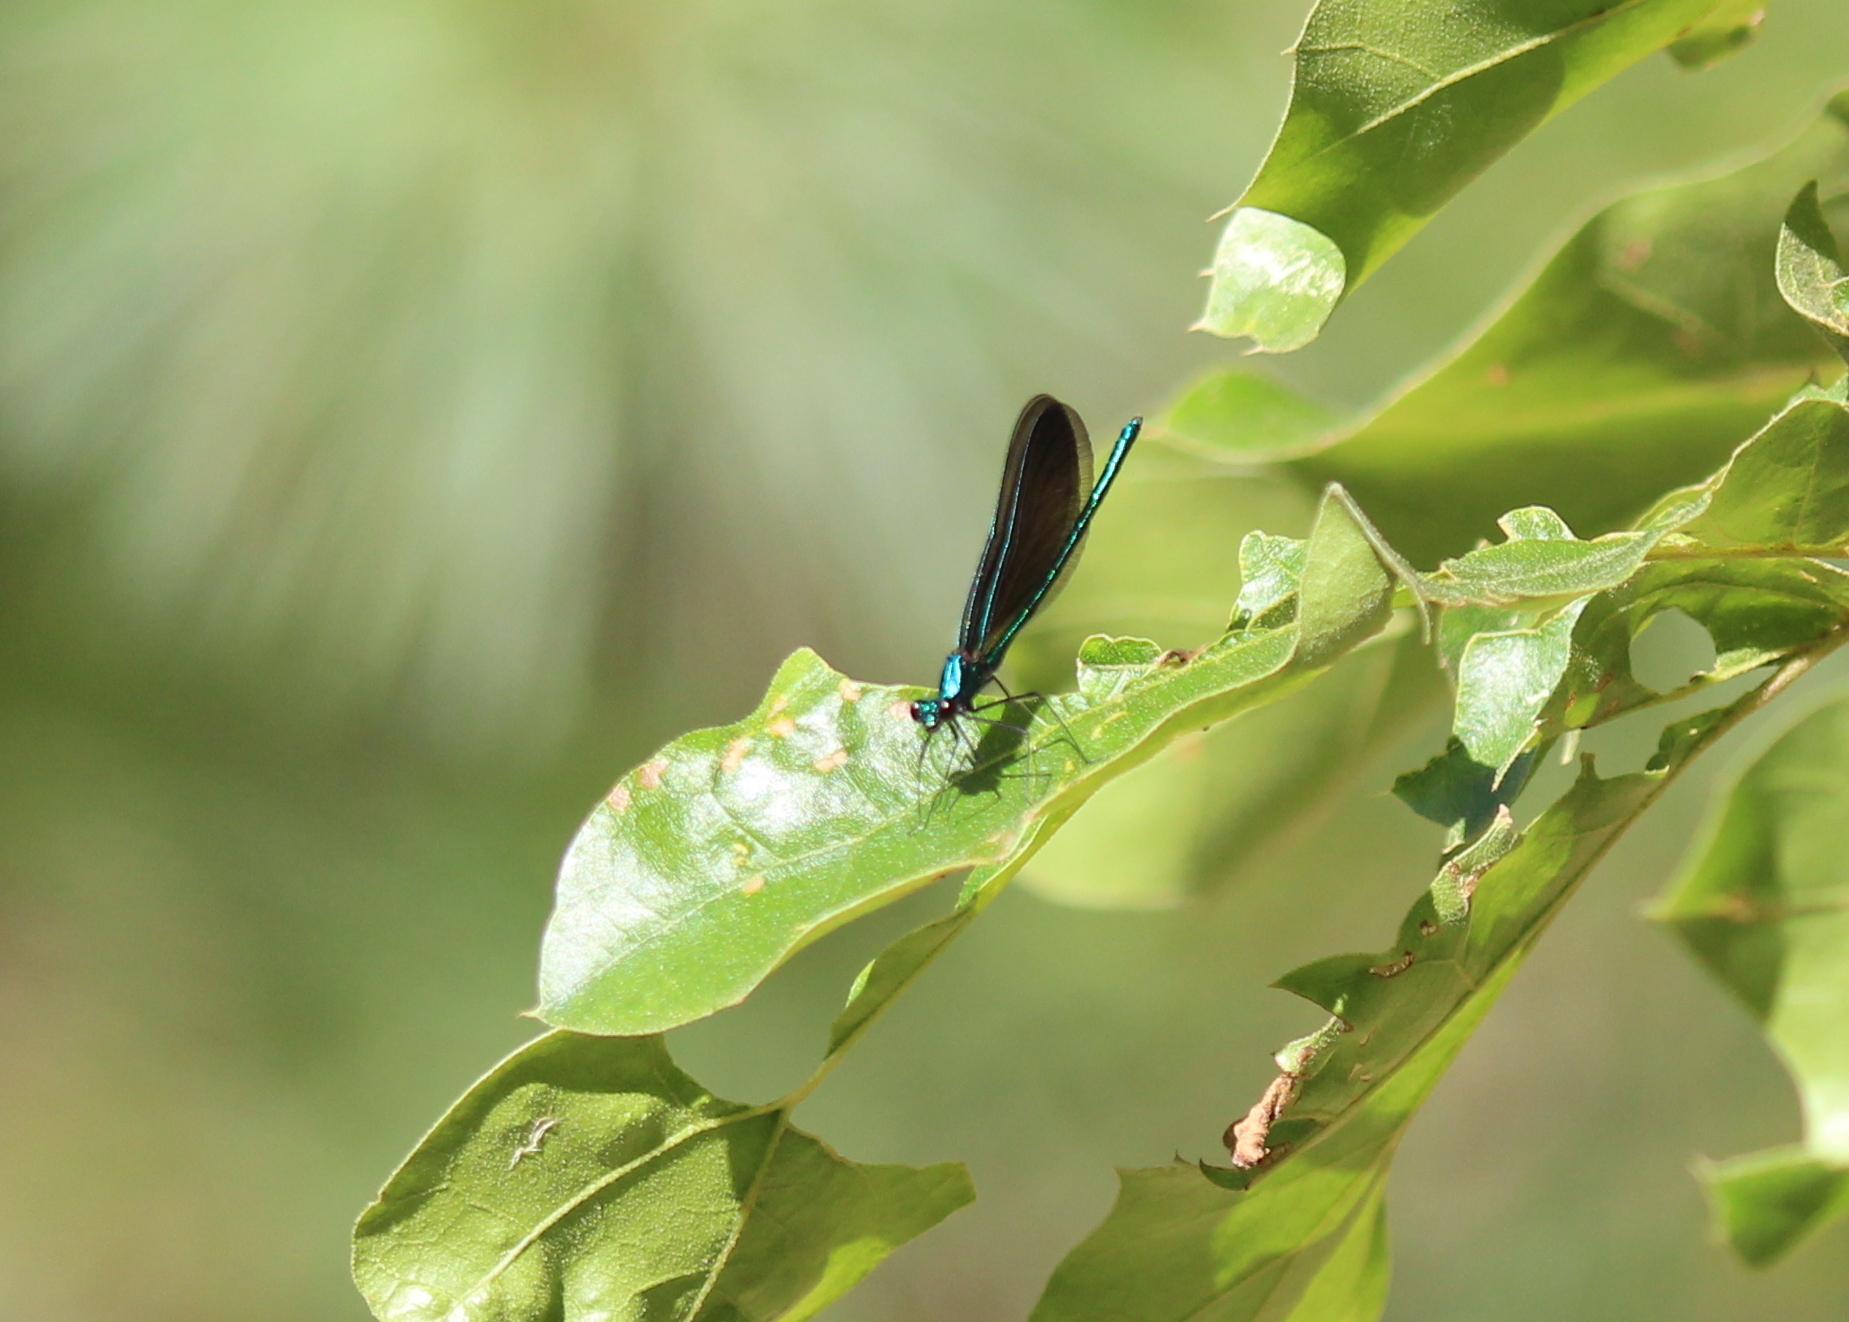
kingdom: Animalia
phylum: Arthropoda
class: Insecta
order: Odonata
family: Calopterygidae
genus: Calopteryx
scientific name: Calopteryx maculata
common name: Ebony jewelwing
